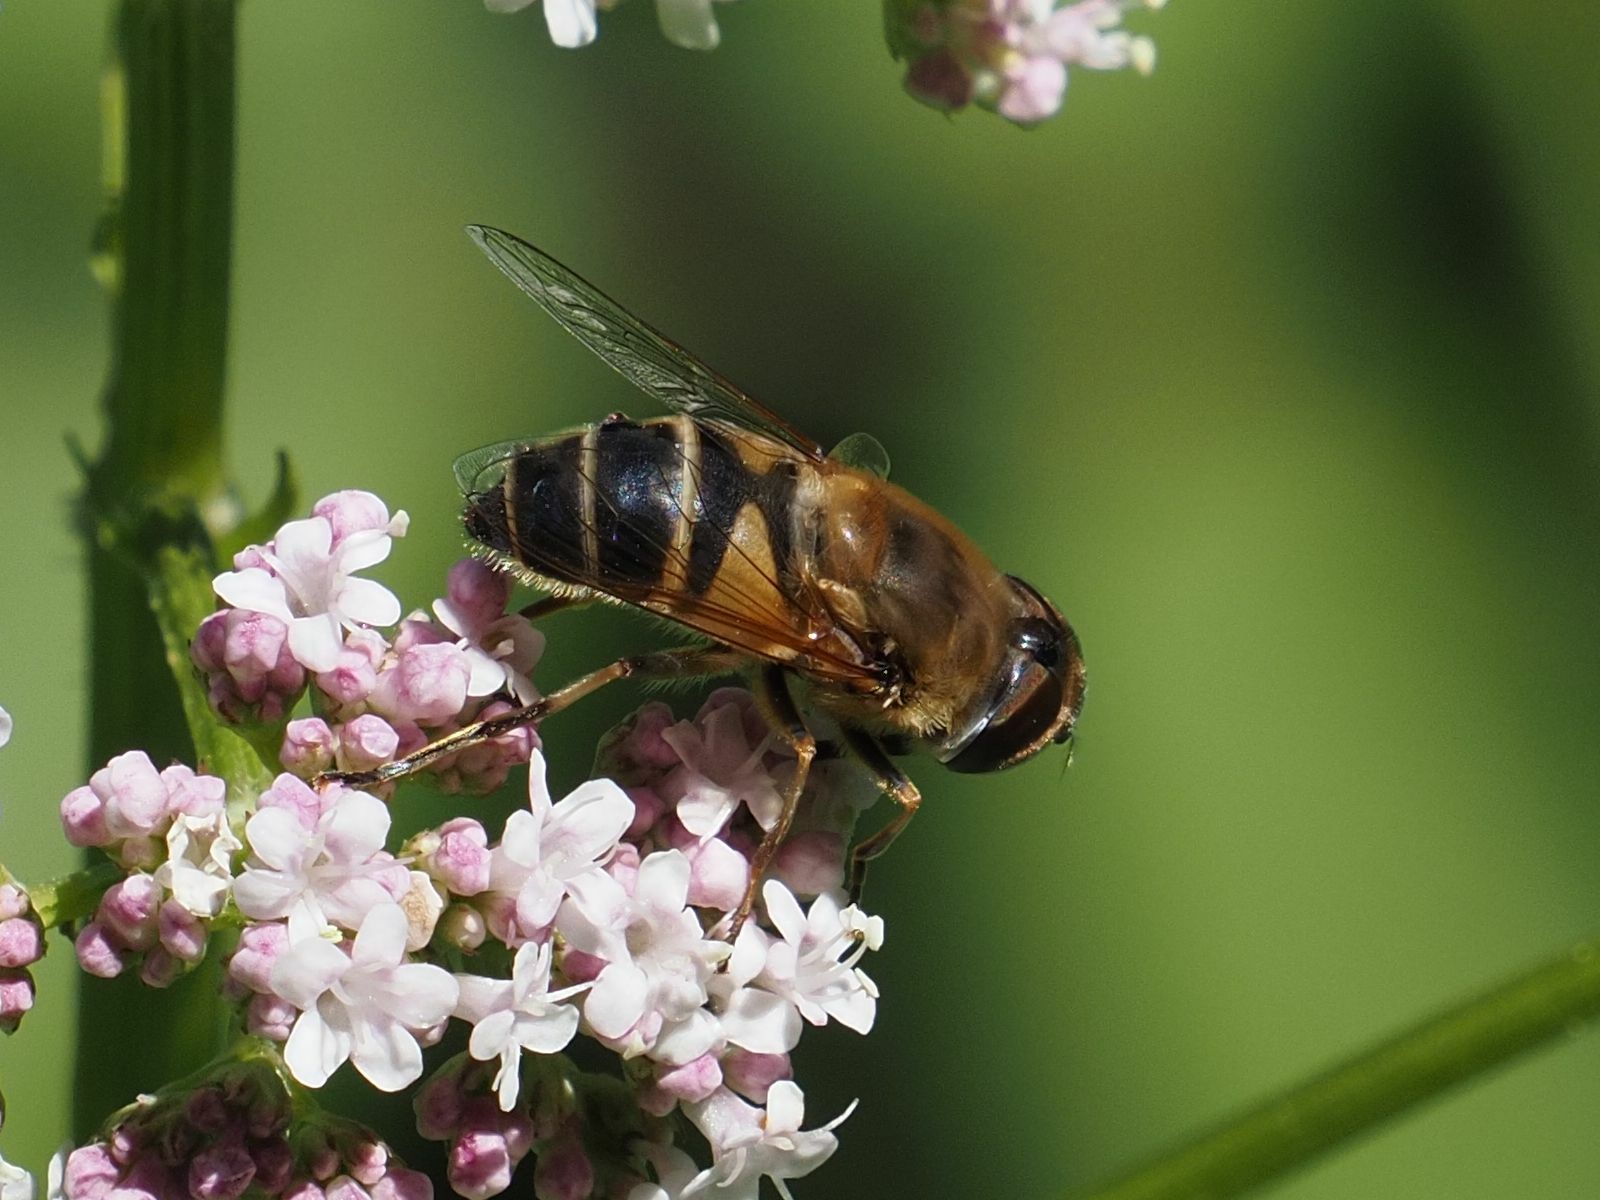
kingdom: Animalia
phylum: Arthropoda
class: Insecta
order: Diptera
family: Syrphidae
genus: Eristalis
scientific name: Eristalis pertinax
